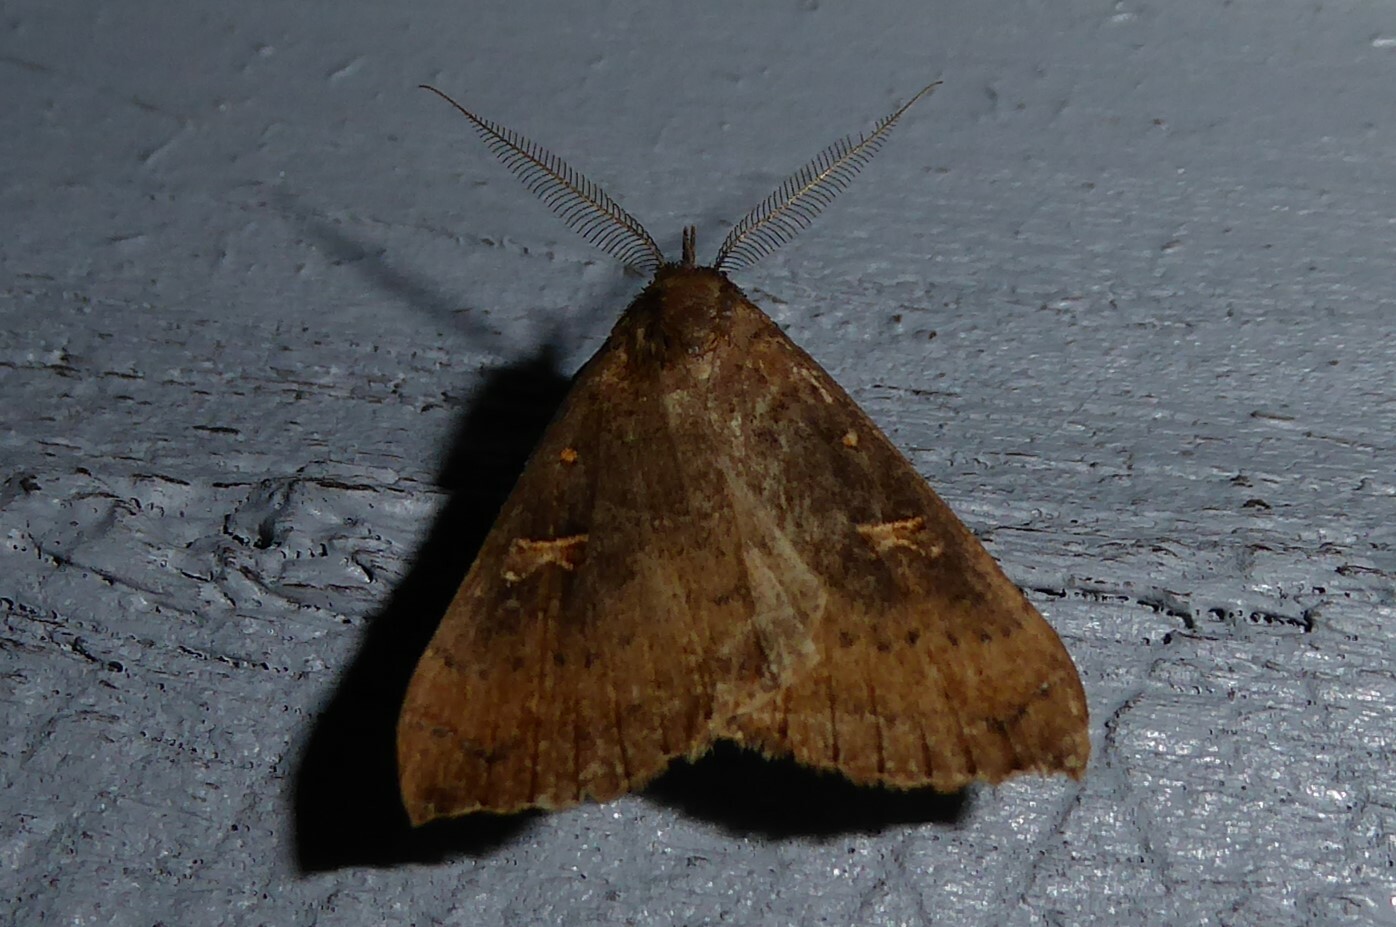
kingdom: Animalia
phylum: Arthropoda
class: Insecta
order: Lepidoptera
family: Erebidae
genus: Rhapsa
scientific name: Rhapsa scotosialis
